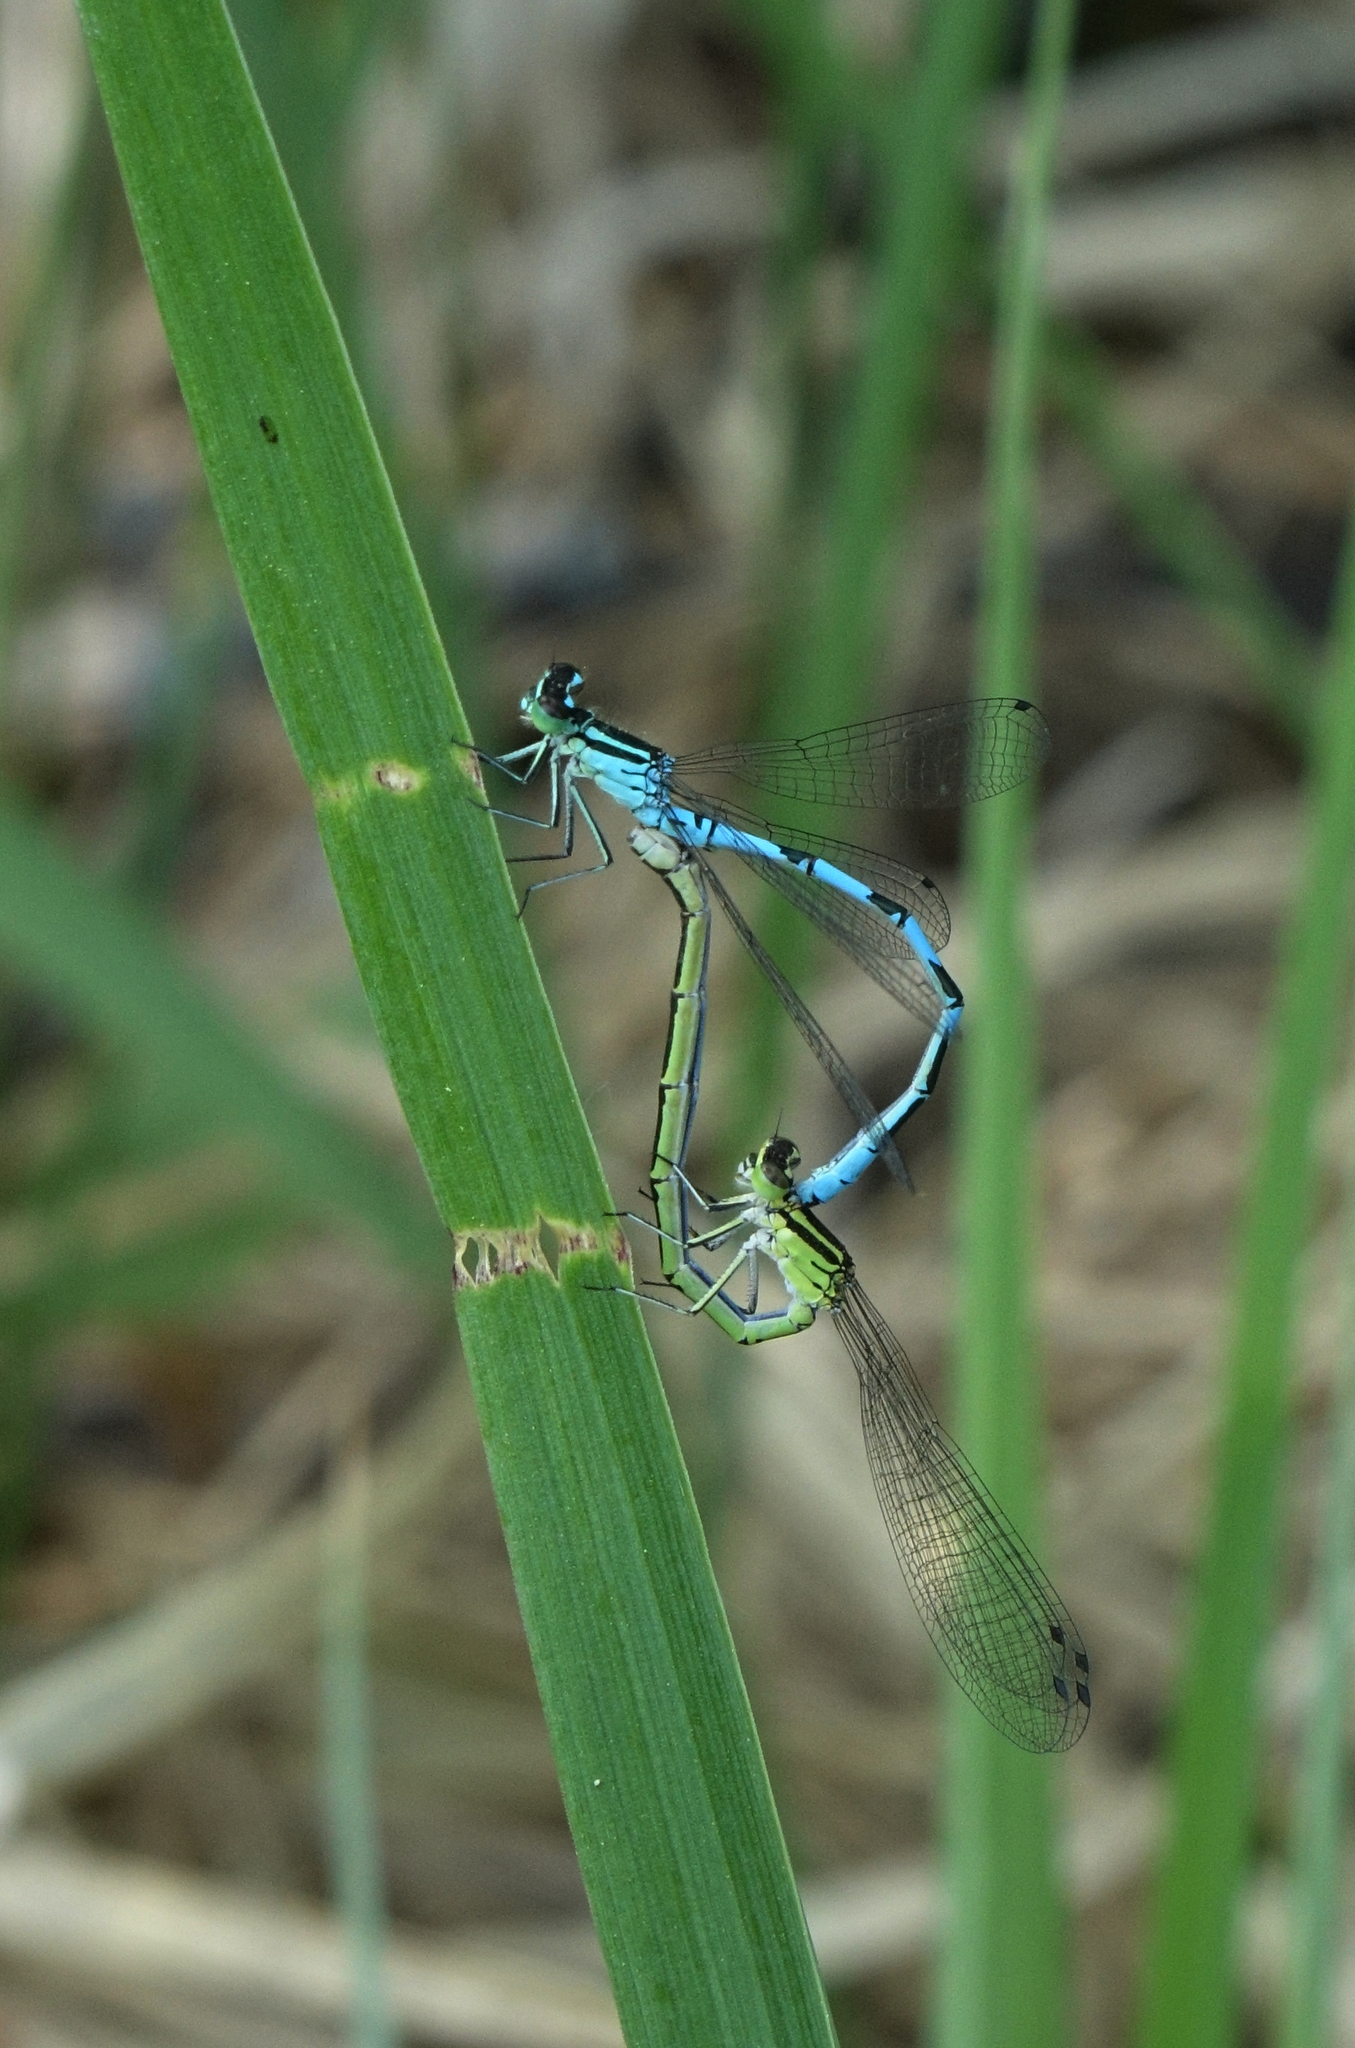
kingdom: Animalia
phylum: Arthropoda
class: Insecta
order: Odonata
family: Coenagrionidae
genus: Coenagrion
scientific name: Coenagrion hastulatum
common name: Spearhead bluet
